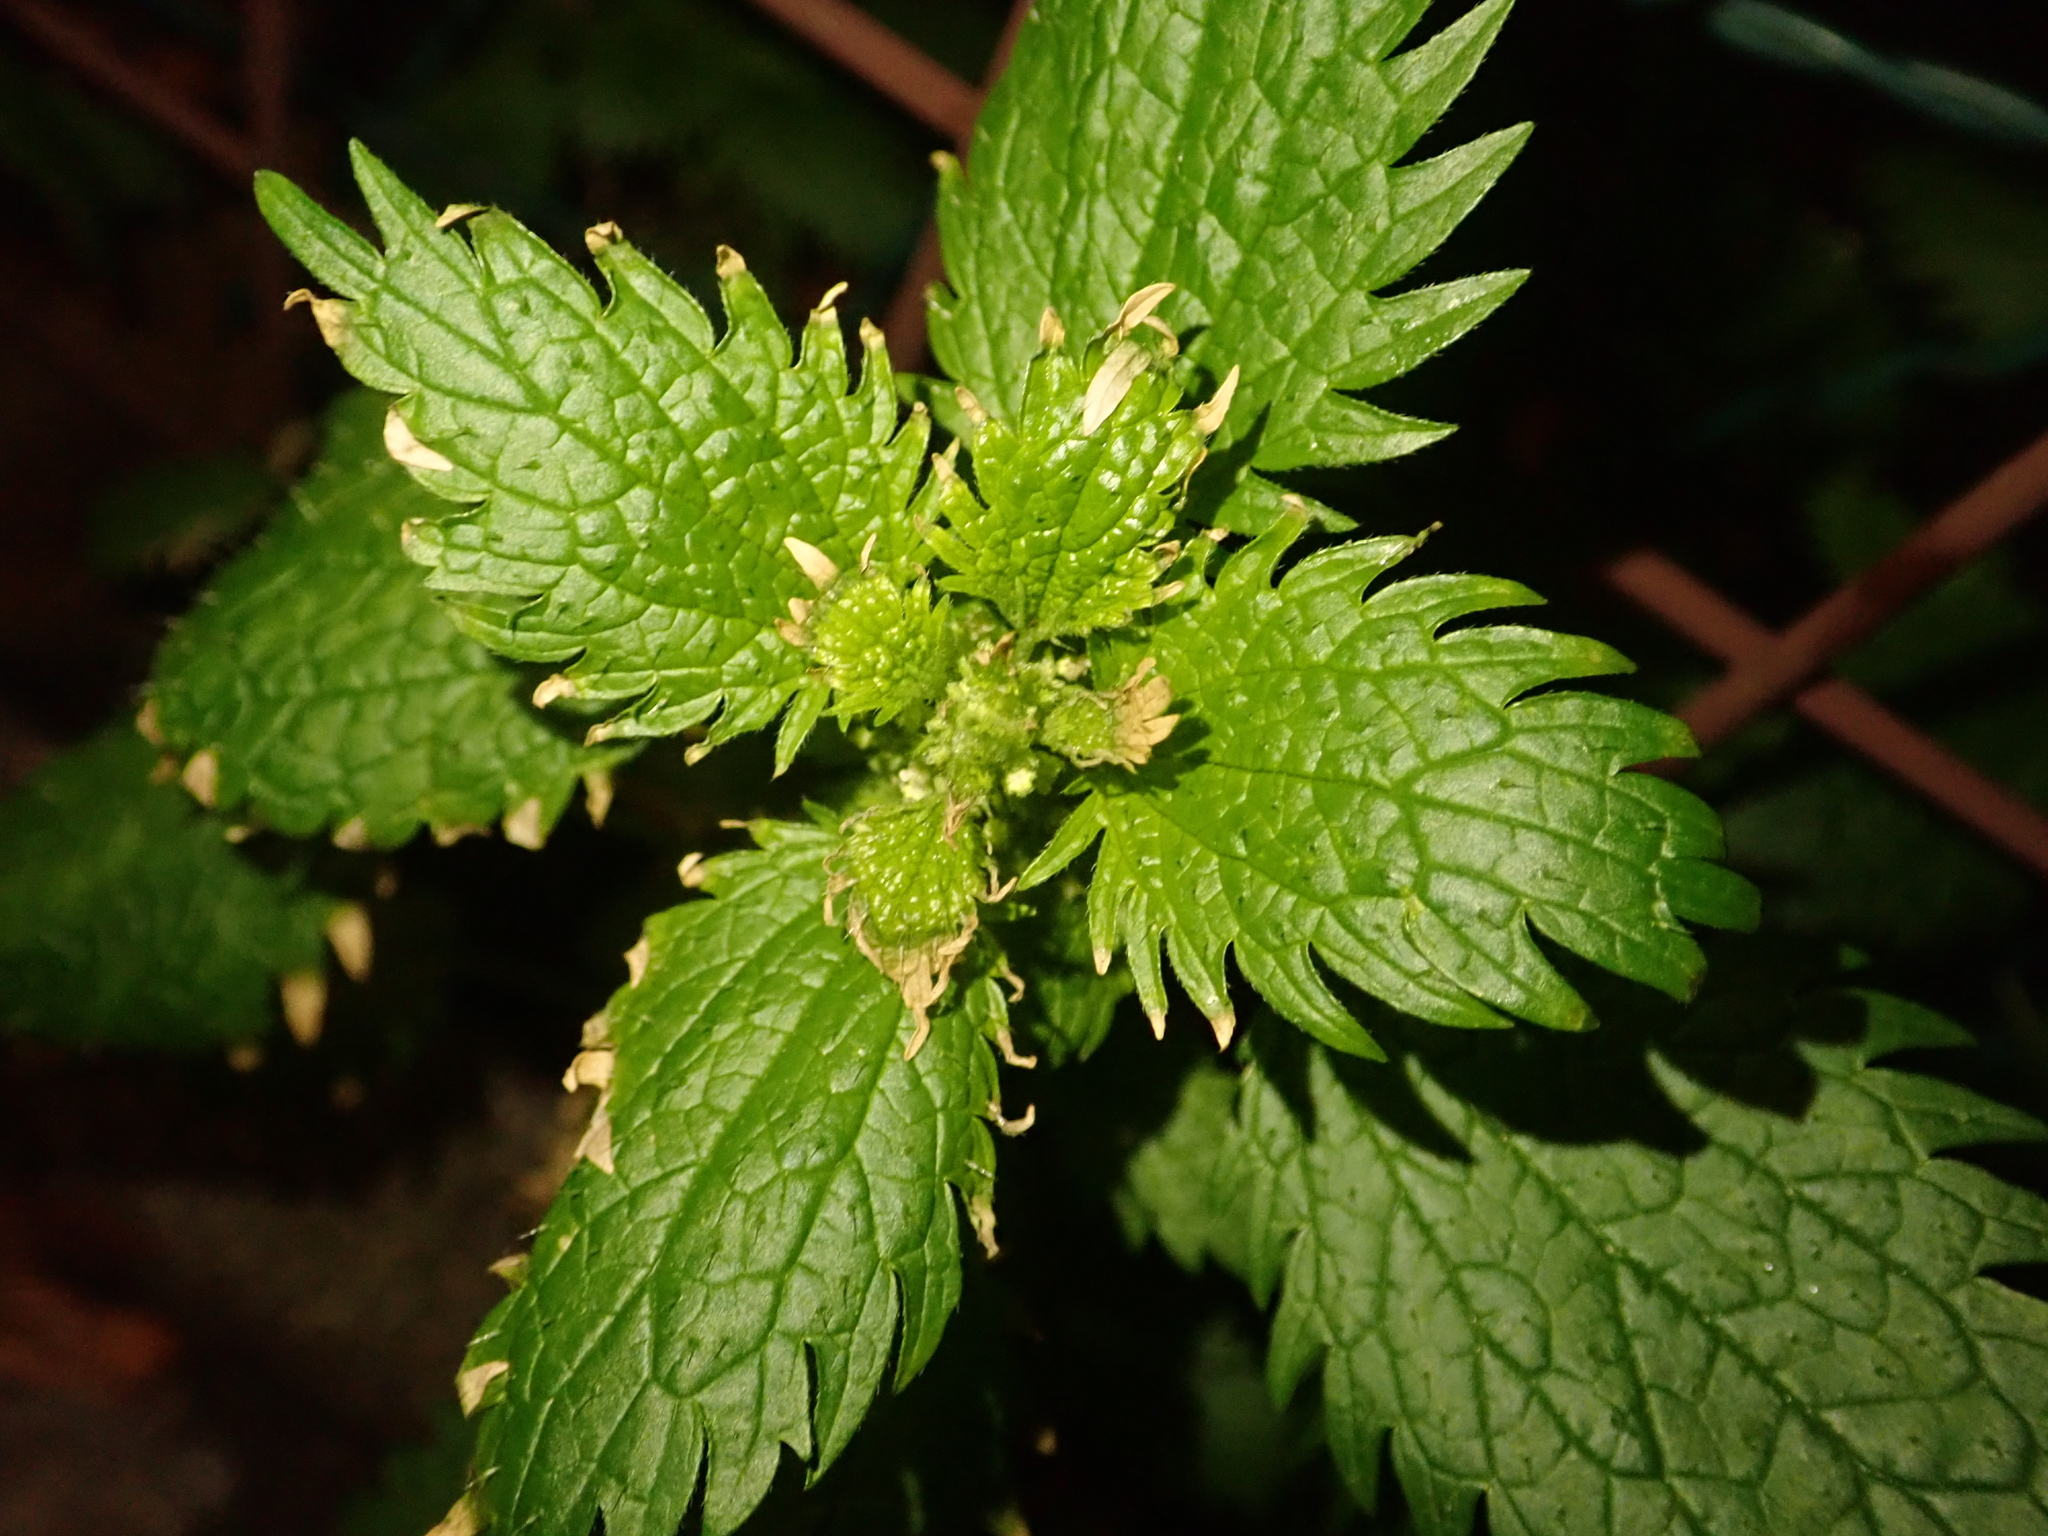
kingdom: Plantae
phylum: Tracheophyta
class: Magnoliopsida
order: Rosales
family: Urticaceae
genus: Urtica
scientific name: Urtica urens
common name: Dwarf nettle
